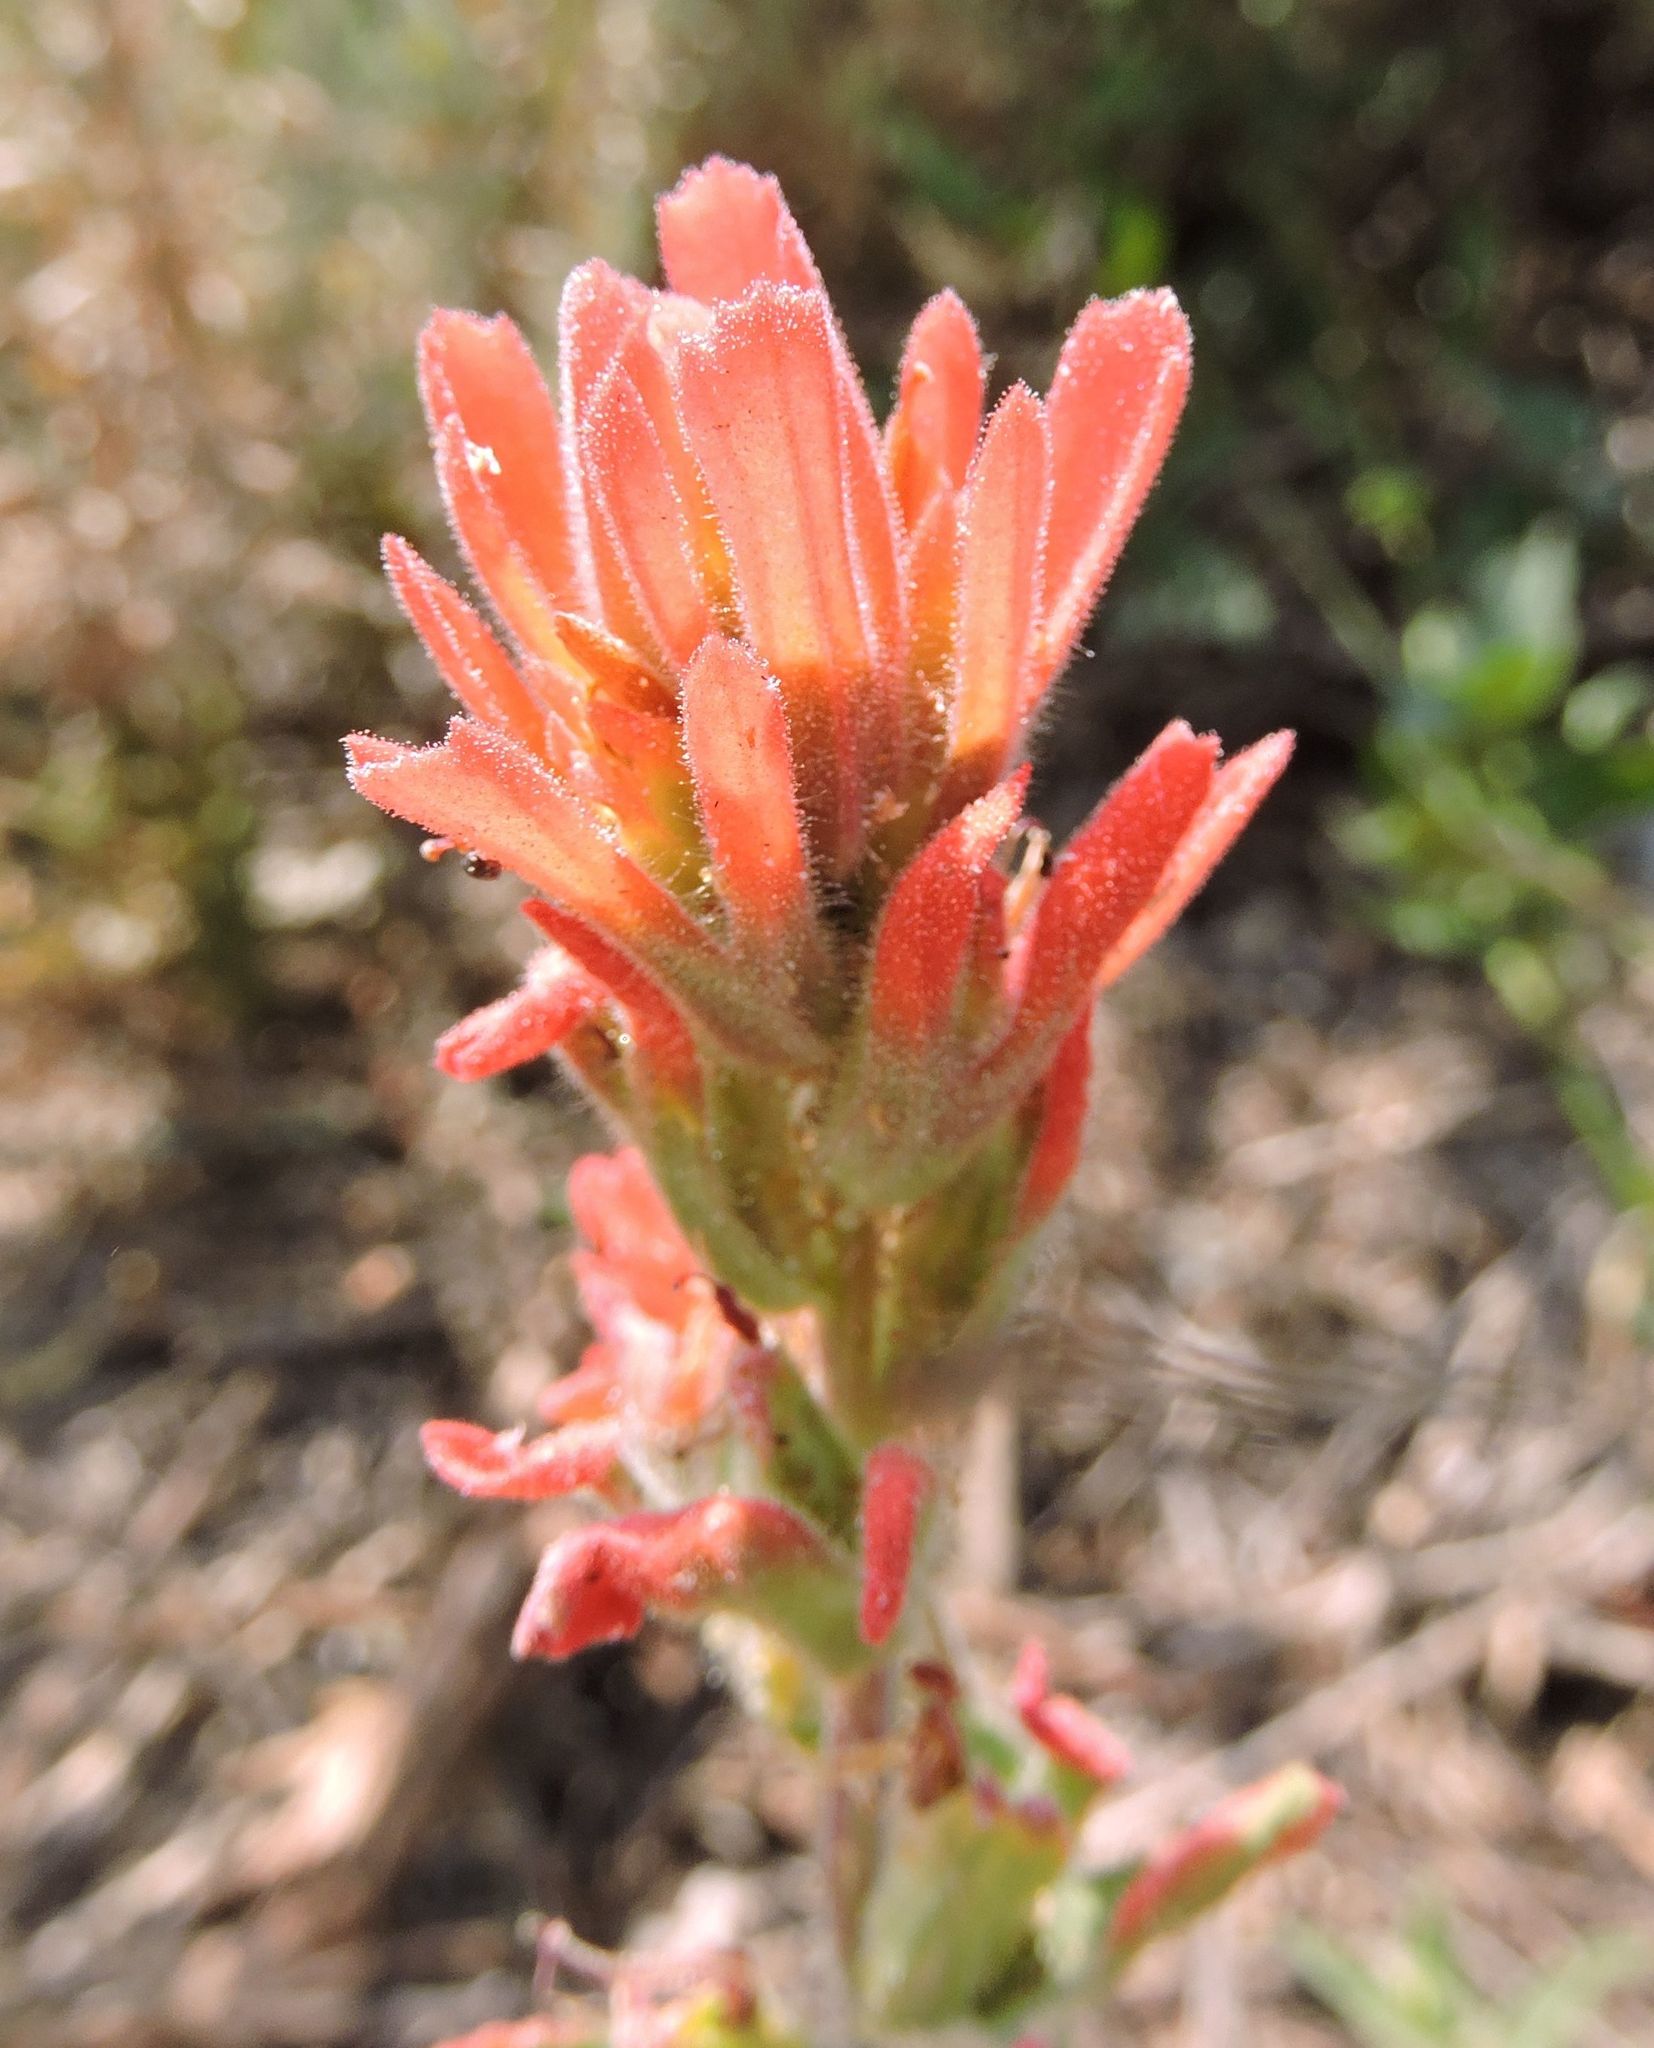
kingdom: Plantae
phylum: Tracheophyta
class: Magnoliopsida
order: Lamiales
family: Orobanchaceae
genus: Castilleja
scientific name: Castilleja applegatei
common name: Wavy-leaf paintbrush
